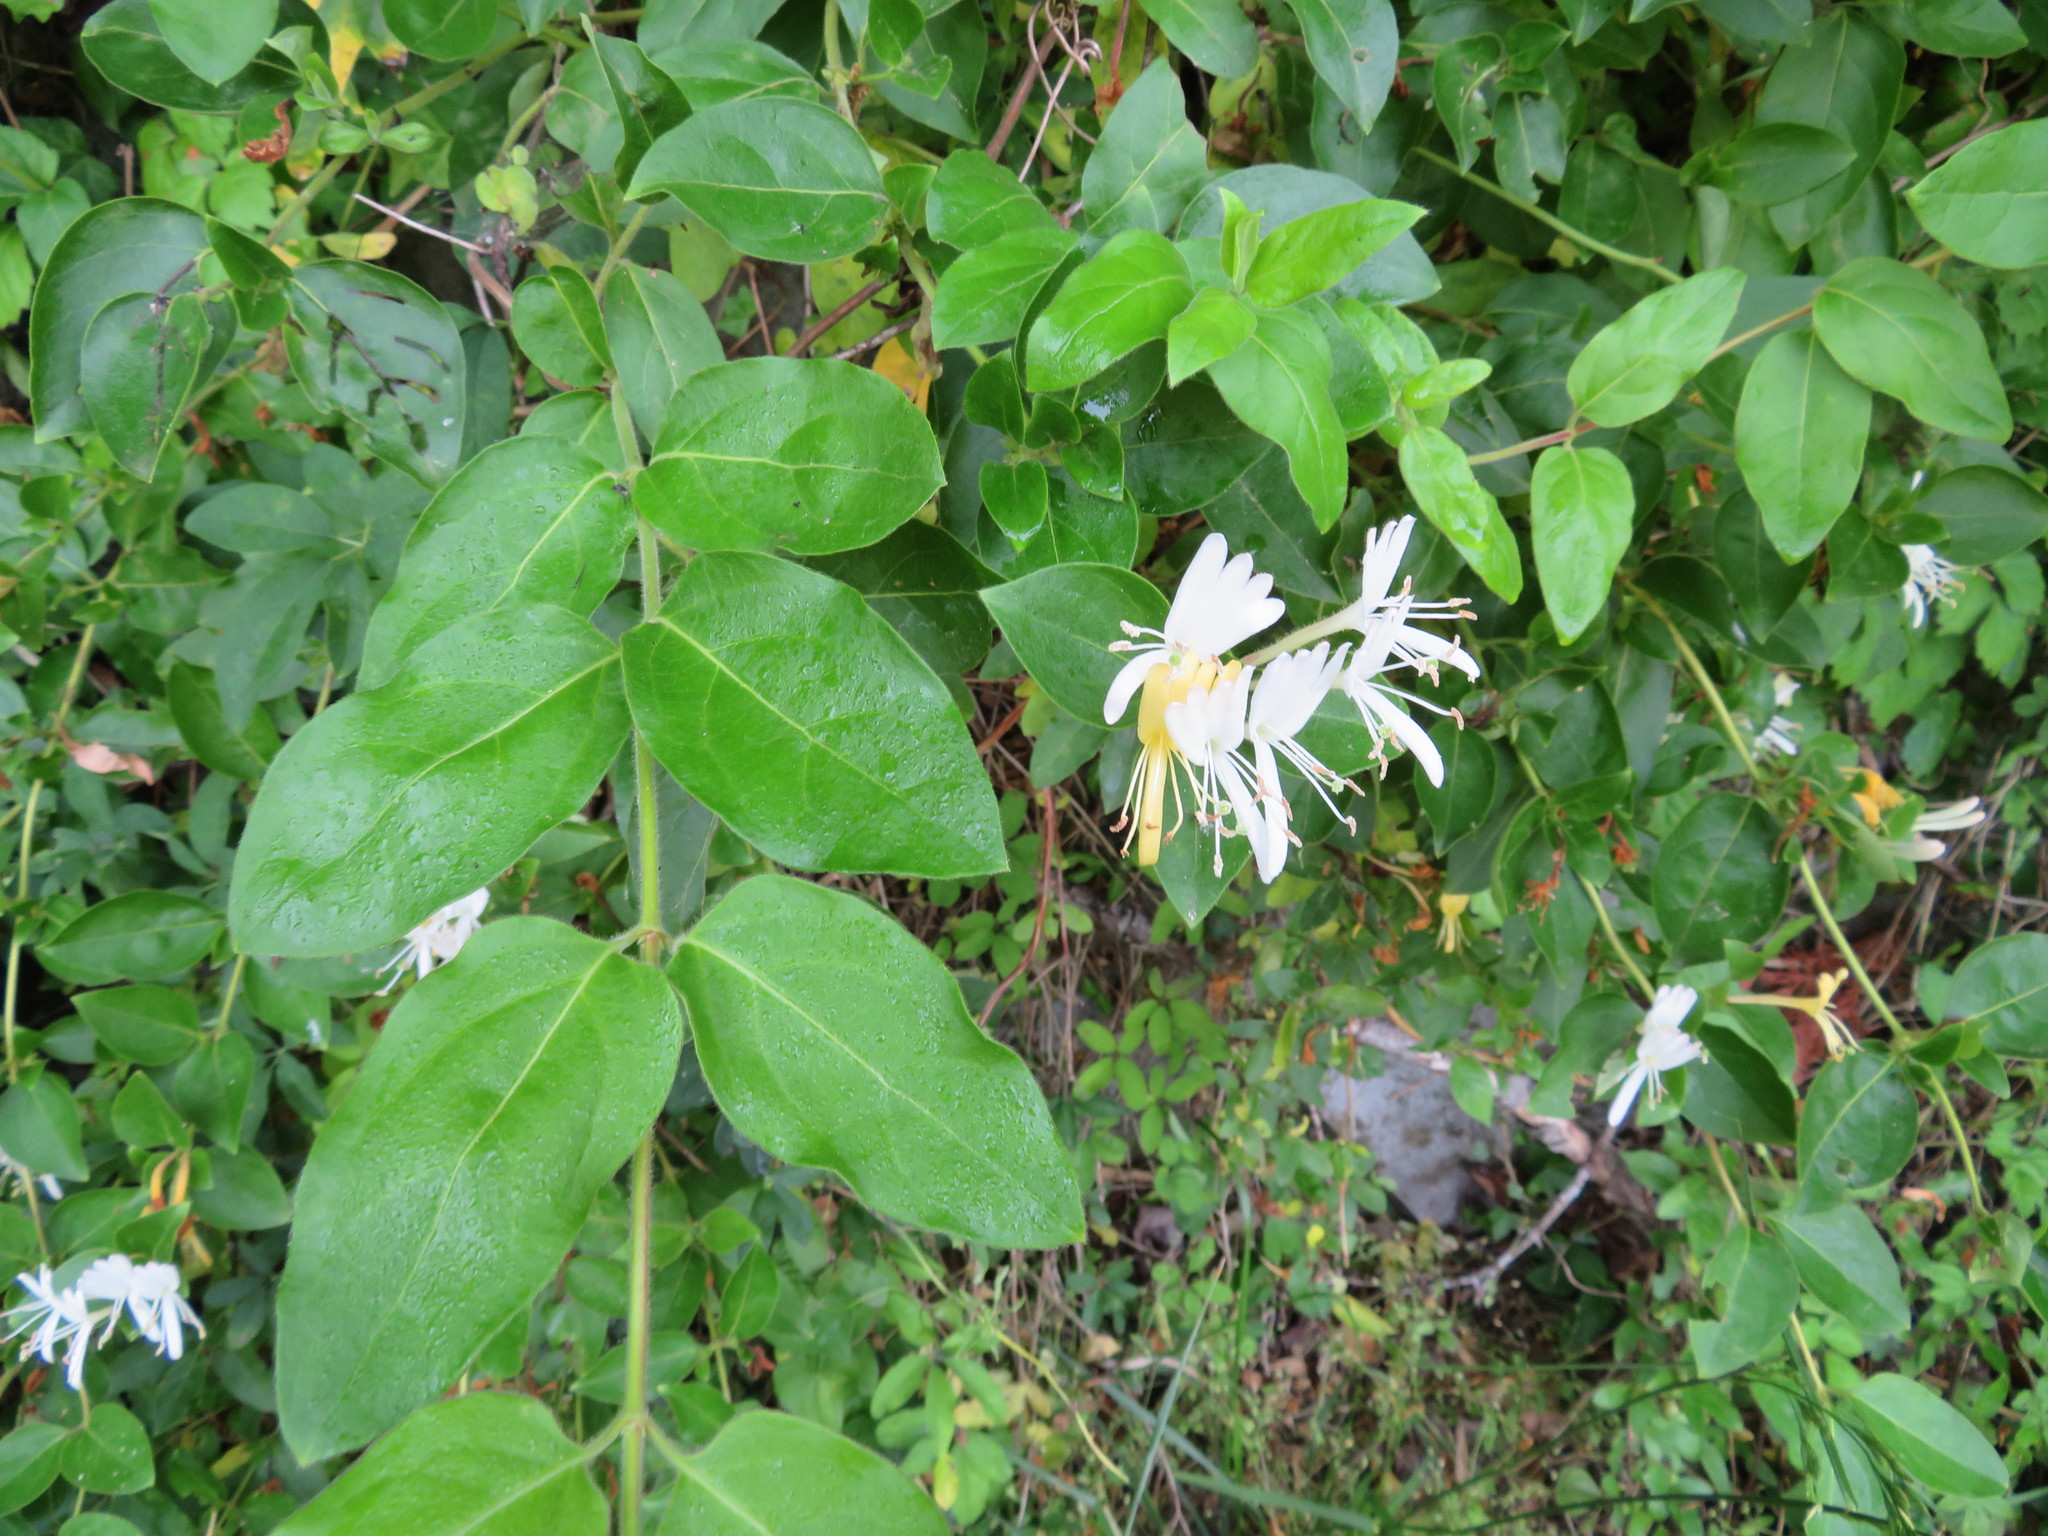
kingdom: Plantae
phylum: Tracheophyta
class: Magnoliopsida
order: Dipsacales
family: Caprifoliaceae
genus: Lonicera
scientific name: Lonicera japonica
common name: Japanese honeysuckle
